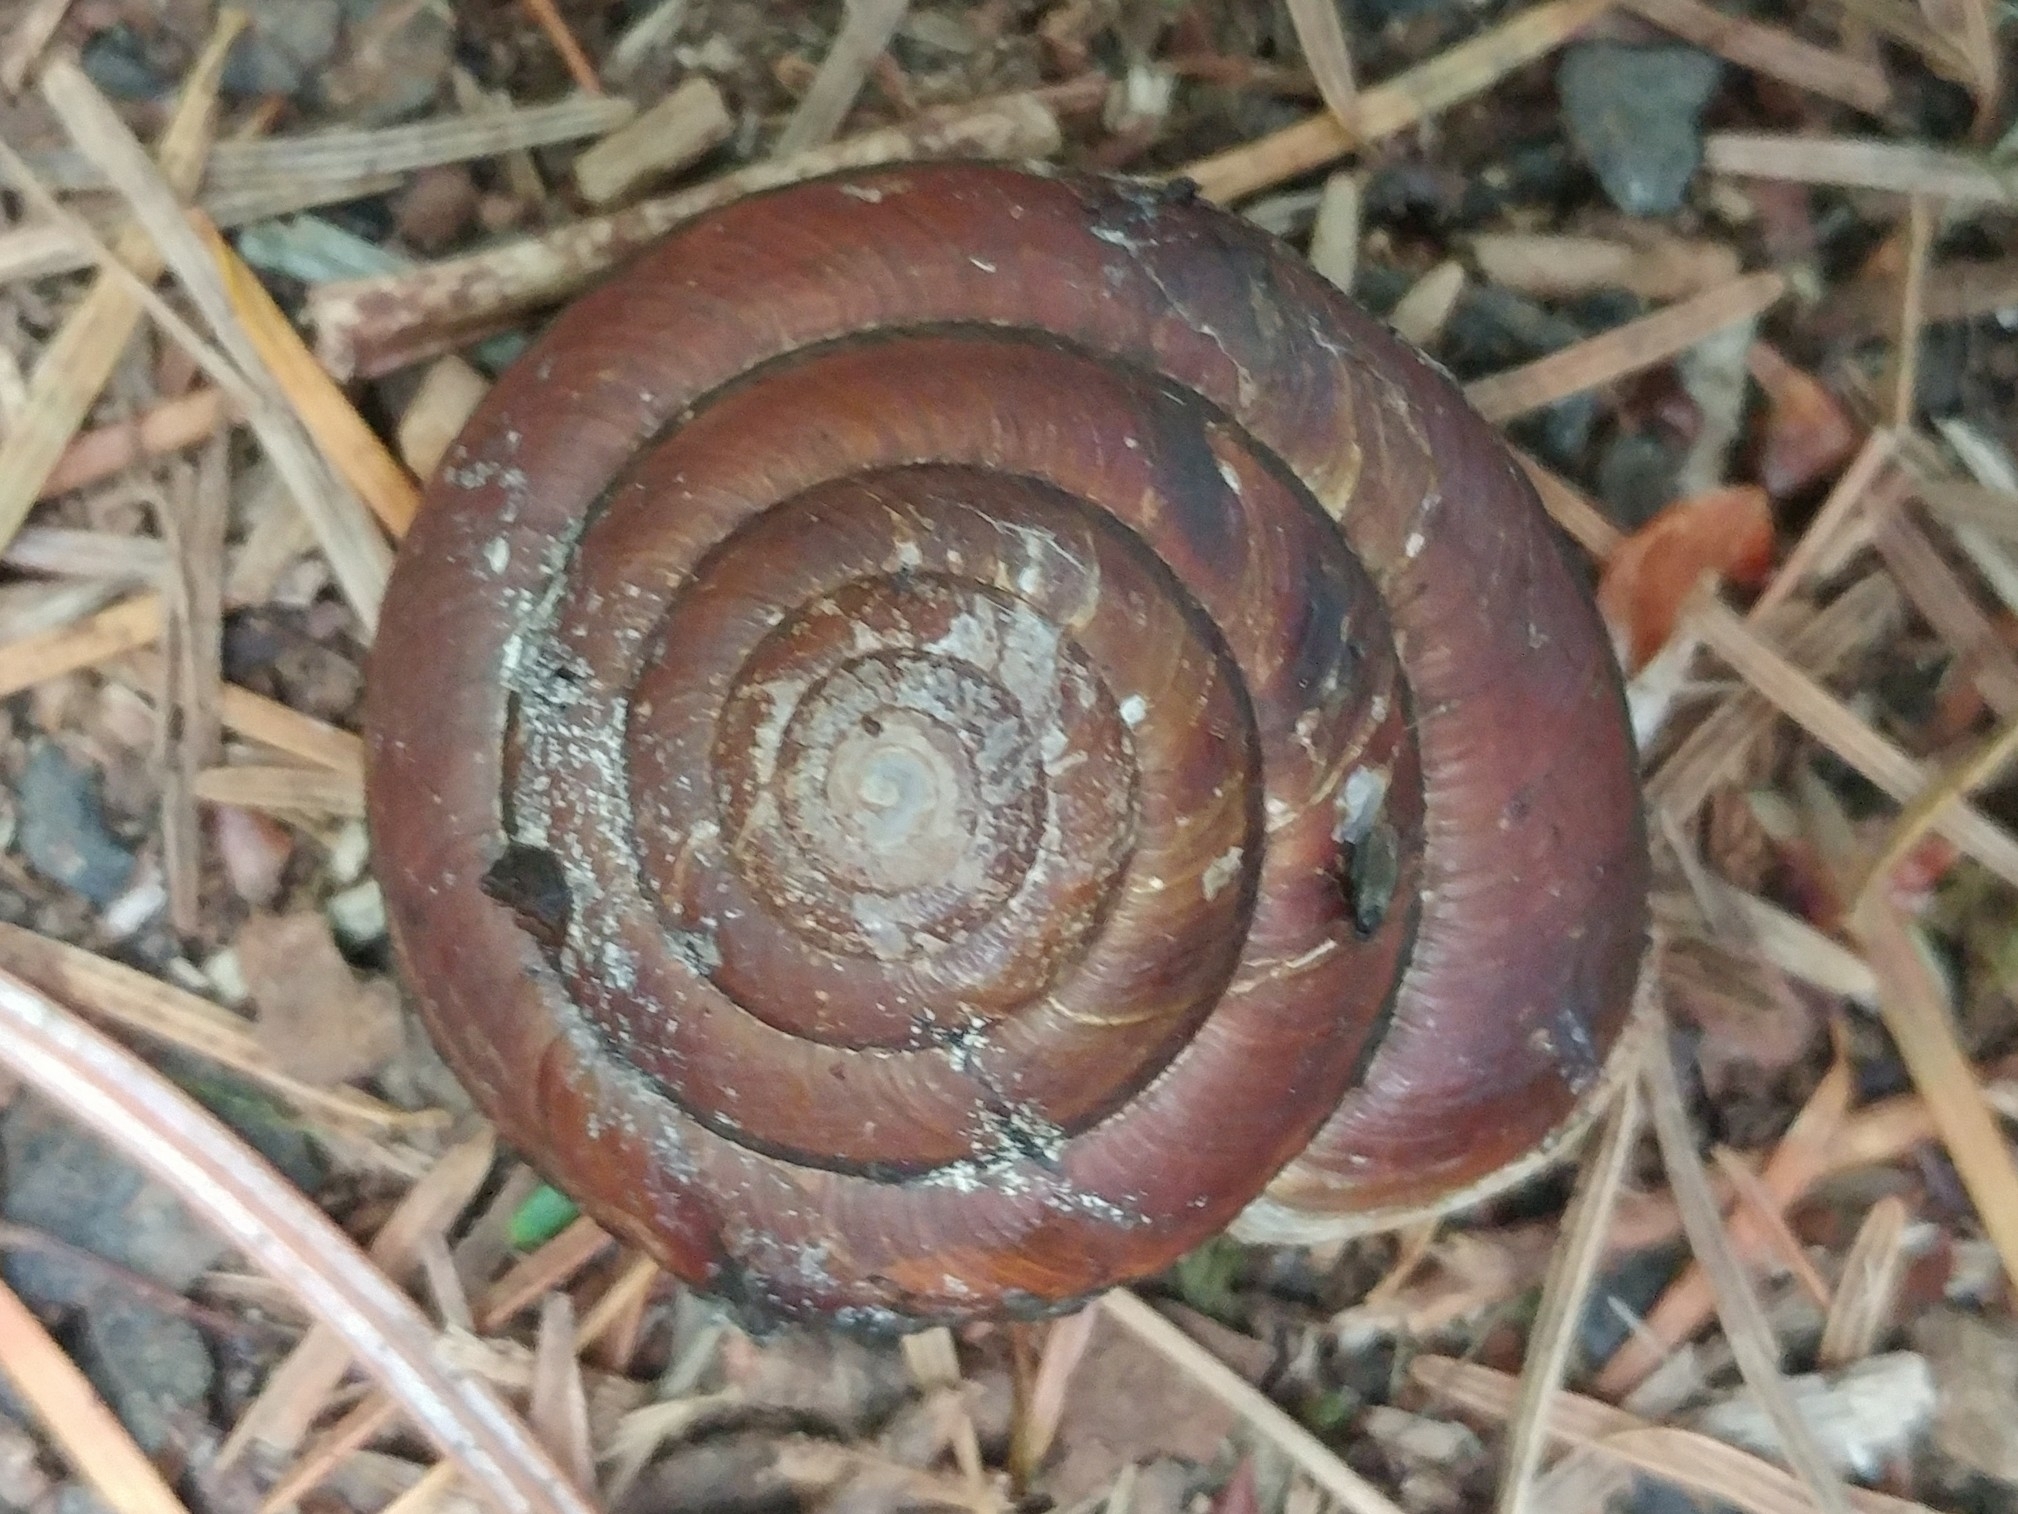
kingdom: Animalia
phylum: Mollusca
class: Gastropoda
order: Stylommatophora
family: Xanthonychidae
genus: Monadenia
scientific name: Monadenia fidelis
